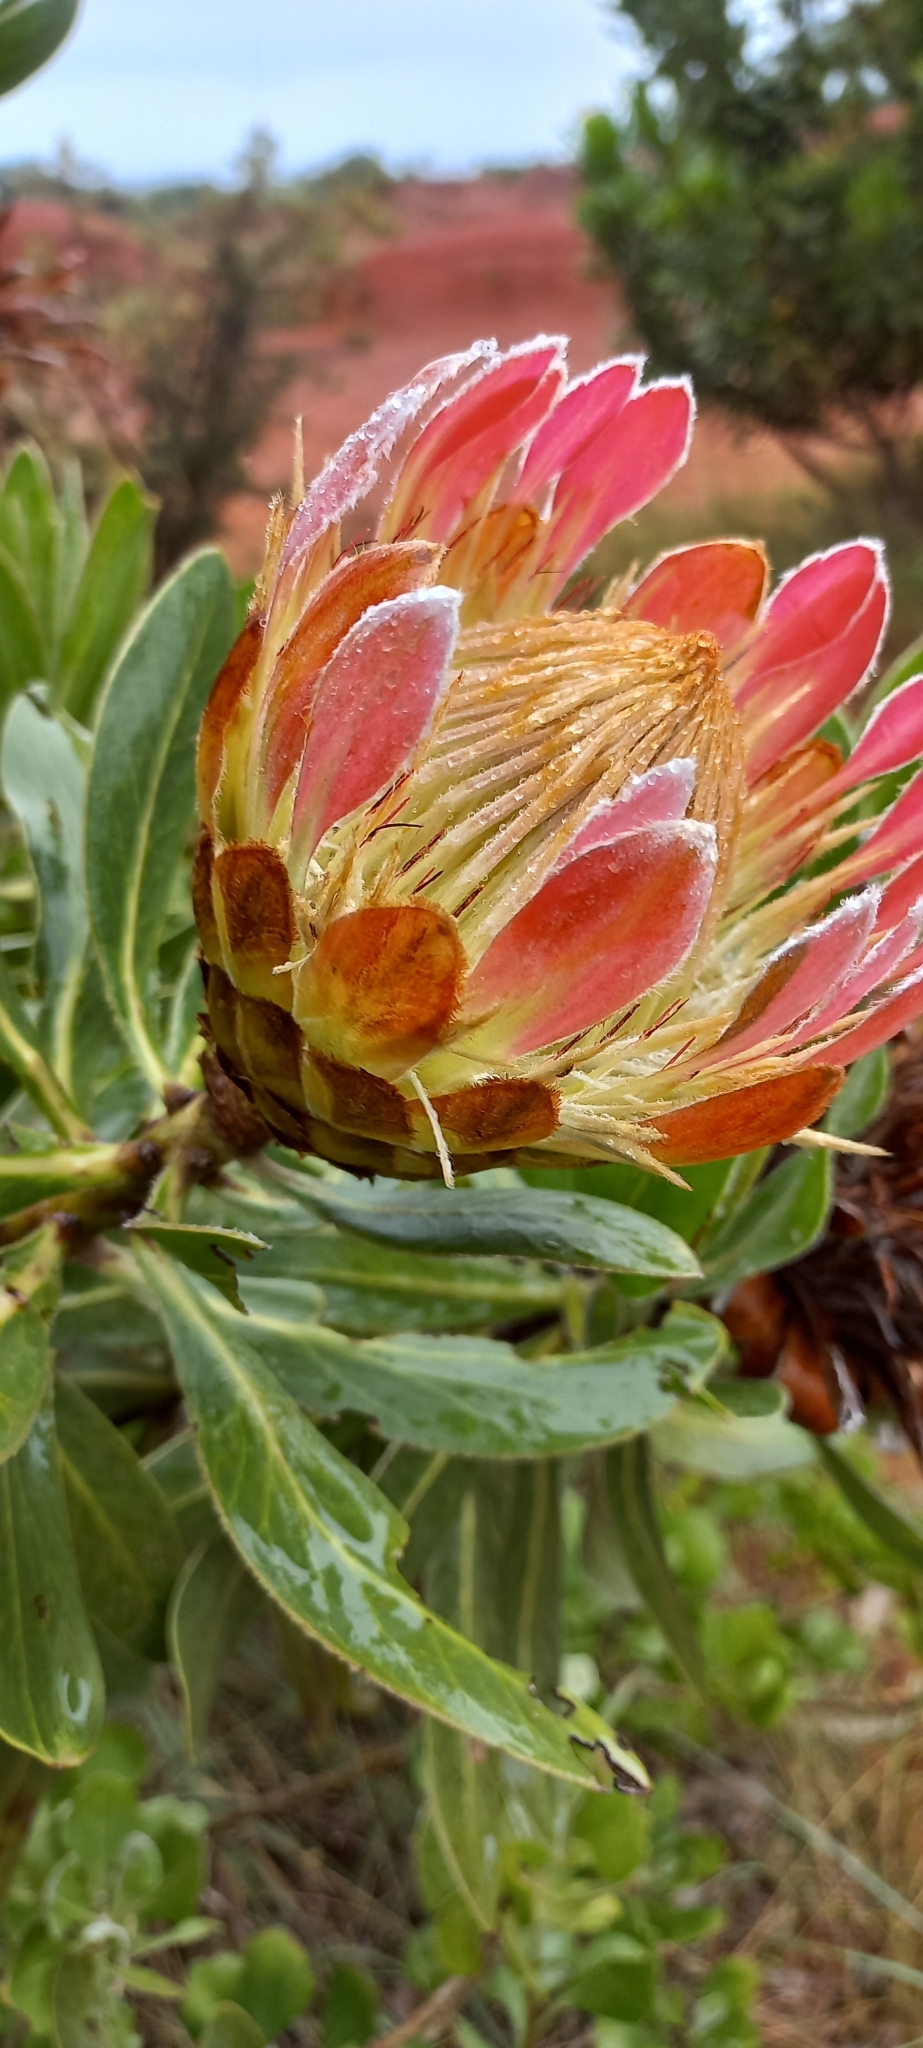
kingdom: Plantae
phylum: Tracheophyta
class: Magnoliopsida
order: Proteales
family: Proteaceae
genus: Protea
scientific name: Protea roupelliae
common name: Silver sugarbush
